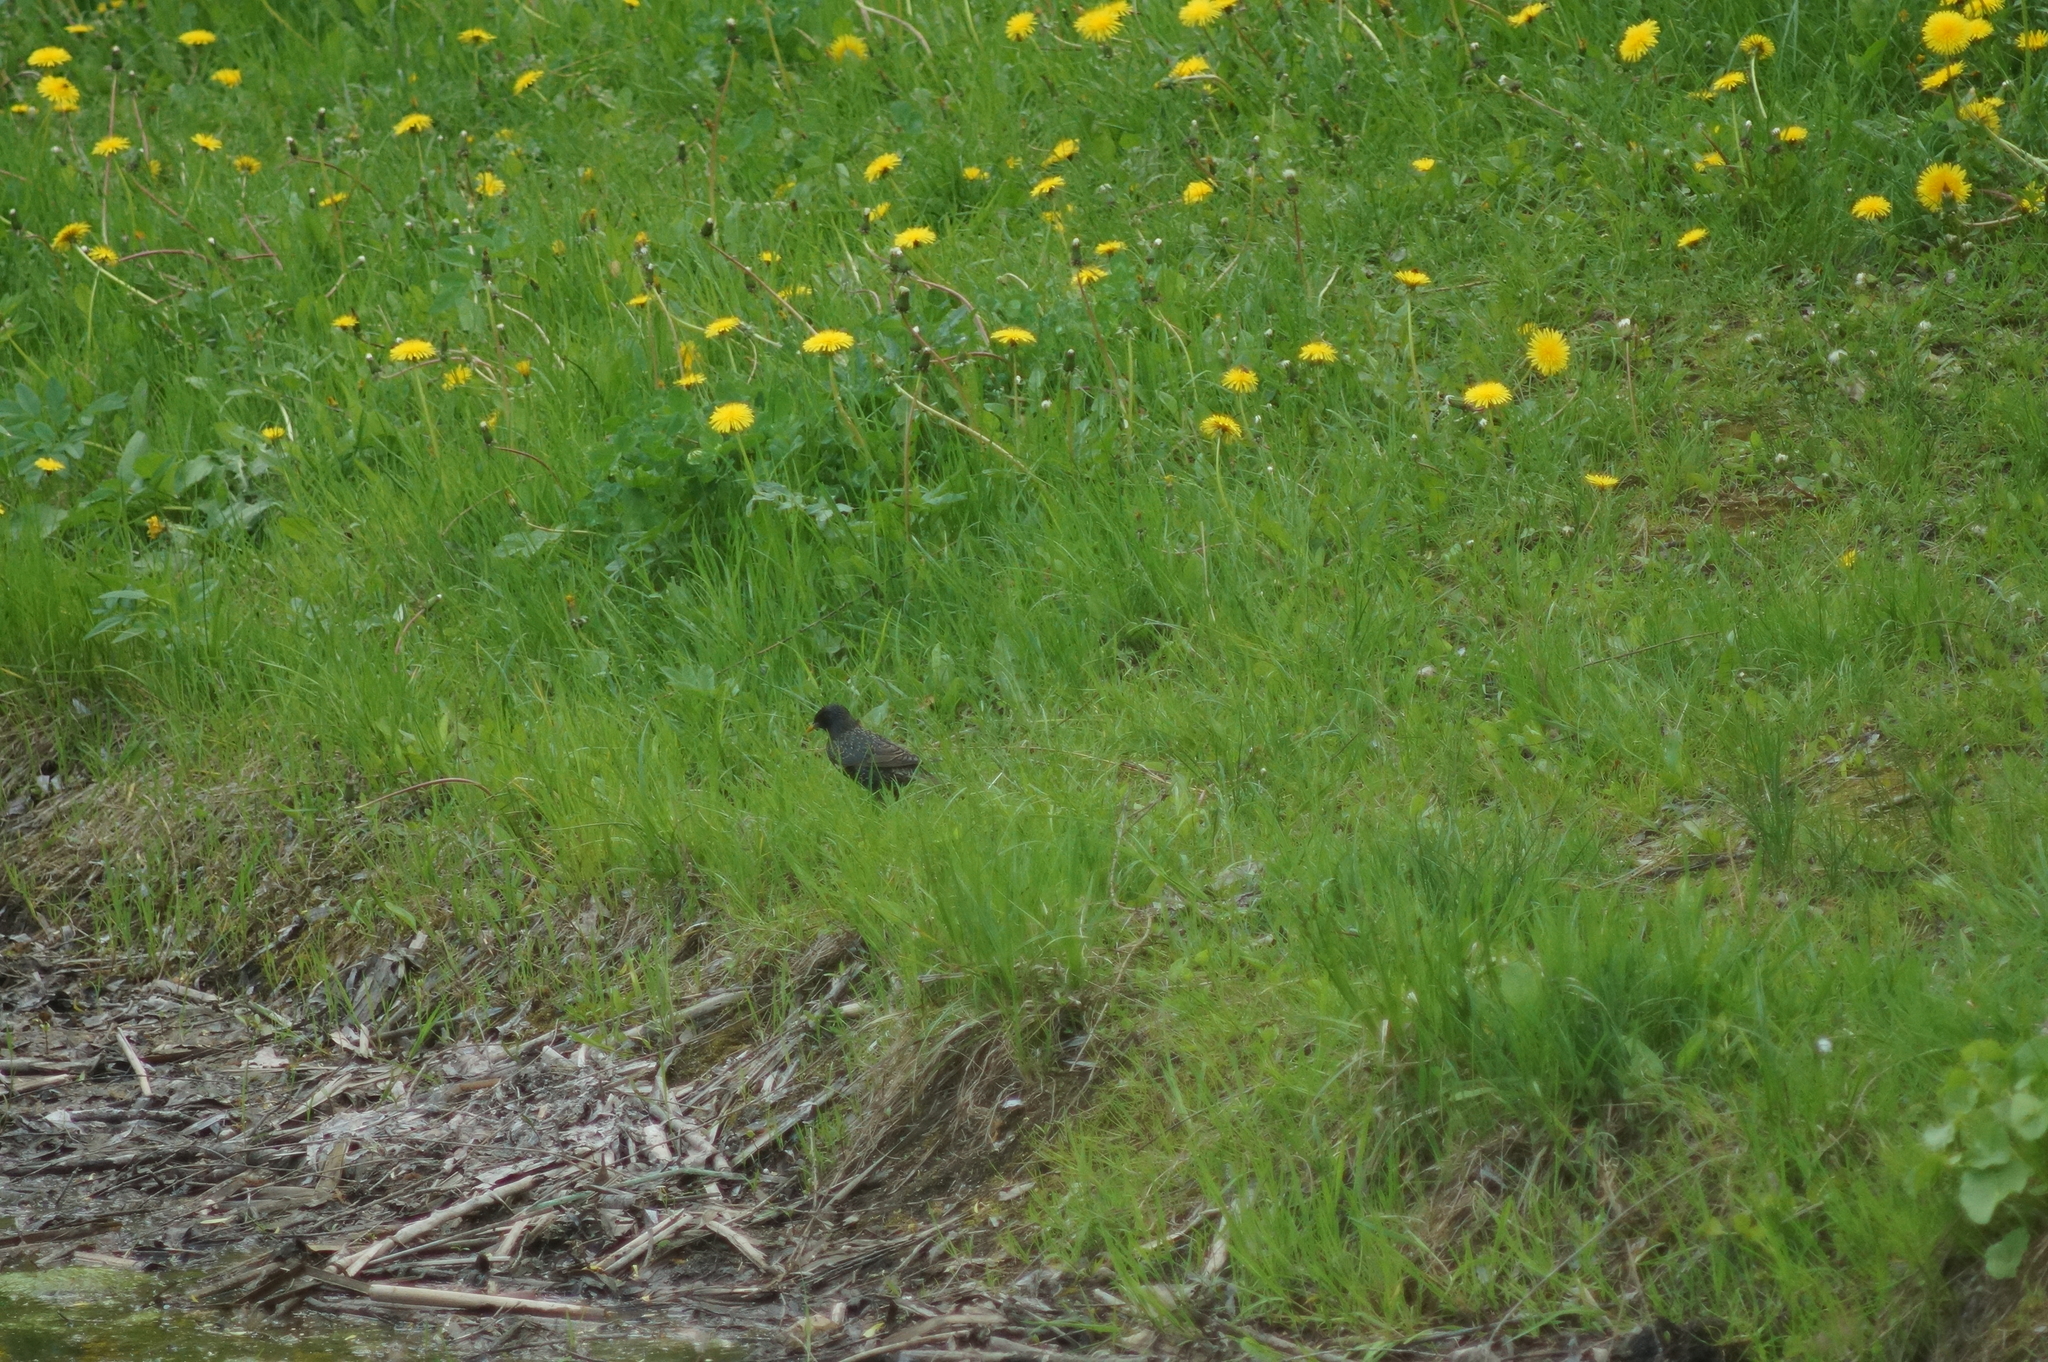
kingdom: Animalia
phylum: Chordata
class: Aves
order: Passeriformes
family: Sturnidae
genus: Sturnus
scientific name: Sturnus vulgaris
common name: Common starling
